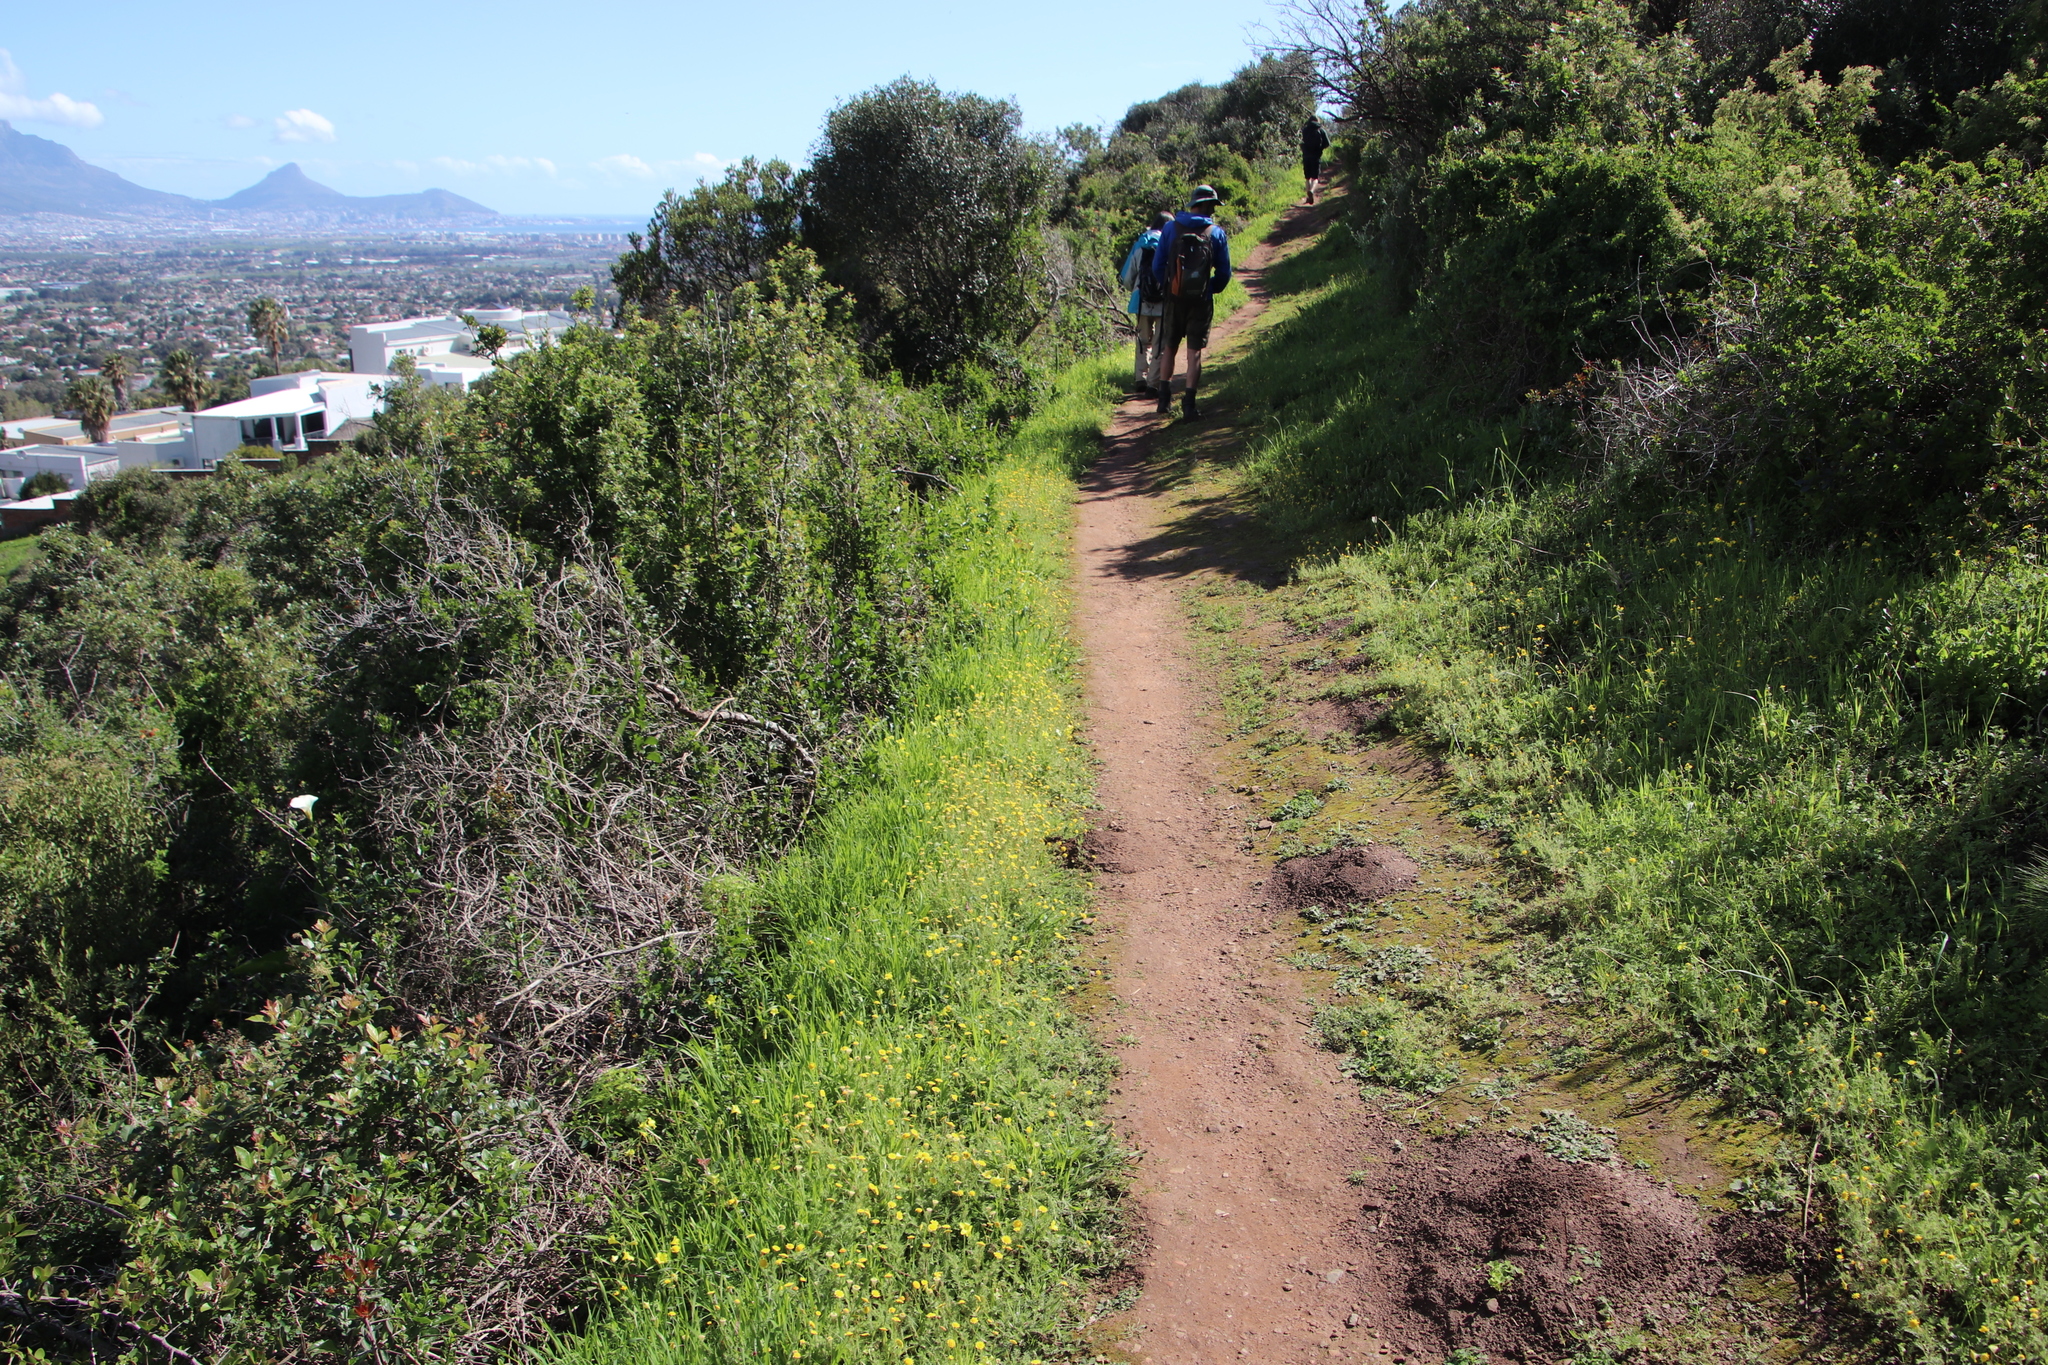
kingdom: Plantae
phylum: Tracheophyta
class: Magnoliopsida
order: Asterales
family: Asteraceae
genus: Cotula
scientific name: Cotula pruinosa
